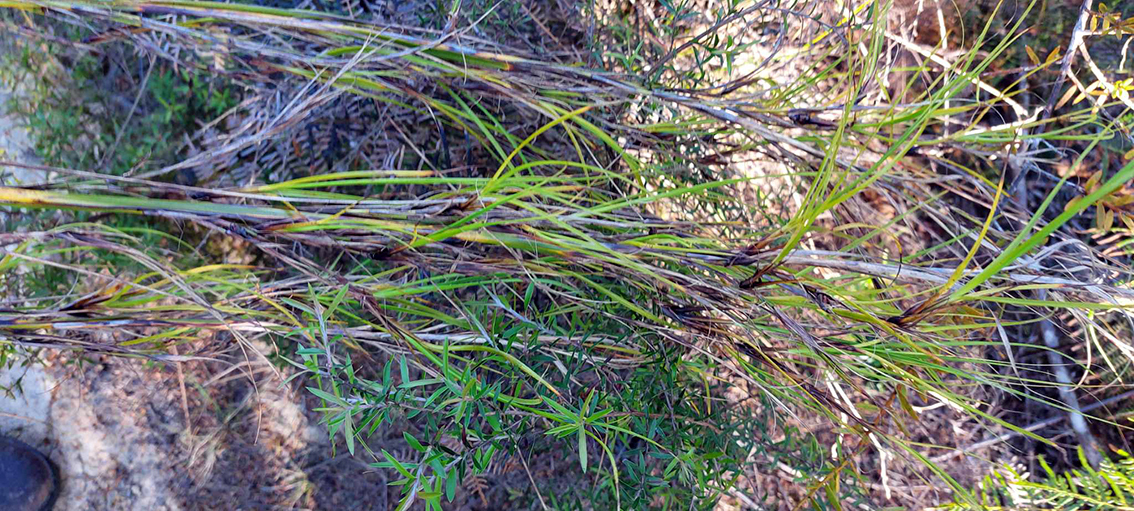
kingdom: Plantae
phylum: Tracheophyta
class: Liliopsida
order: Poales
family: Cyperaceae
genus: Gahnia
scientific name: Gahnia xanthocarpa
